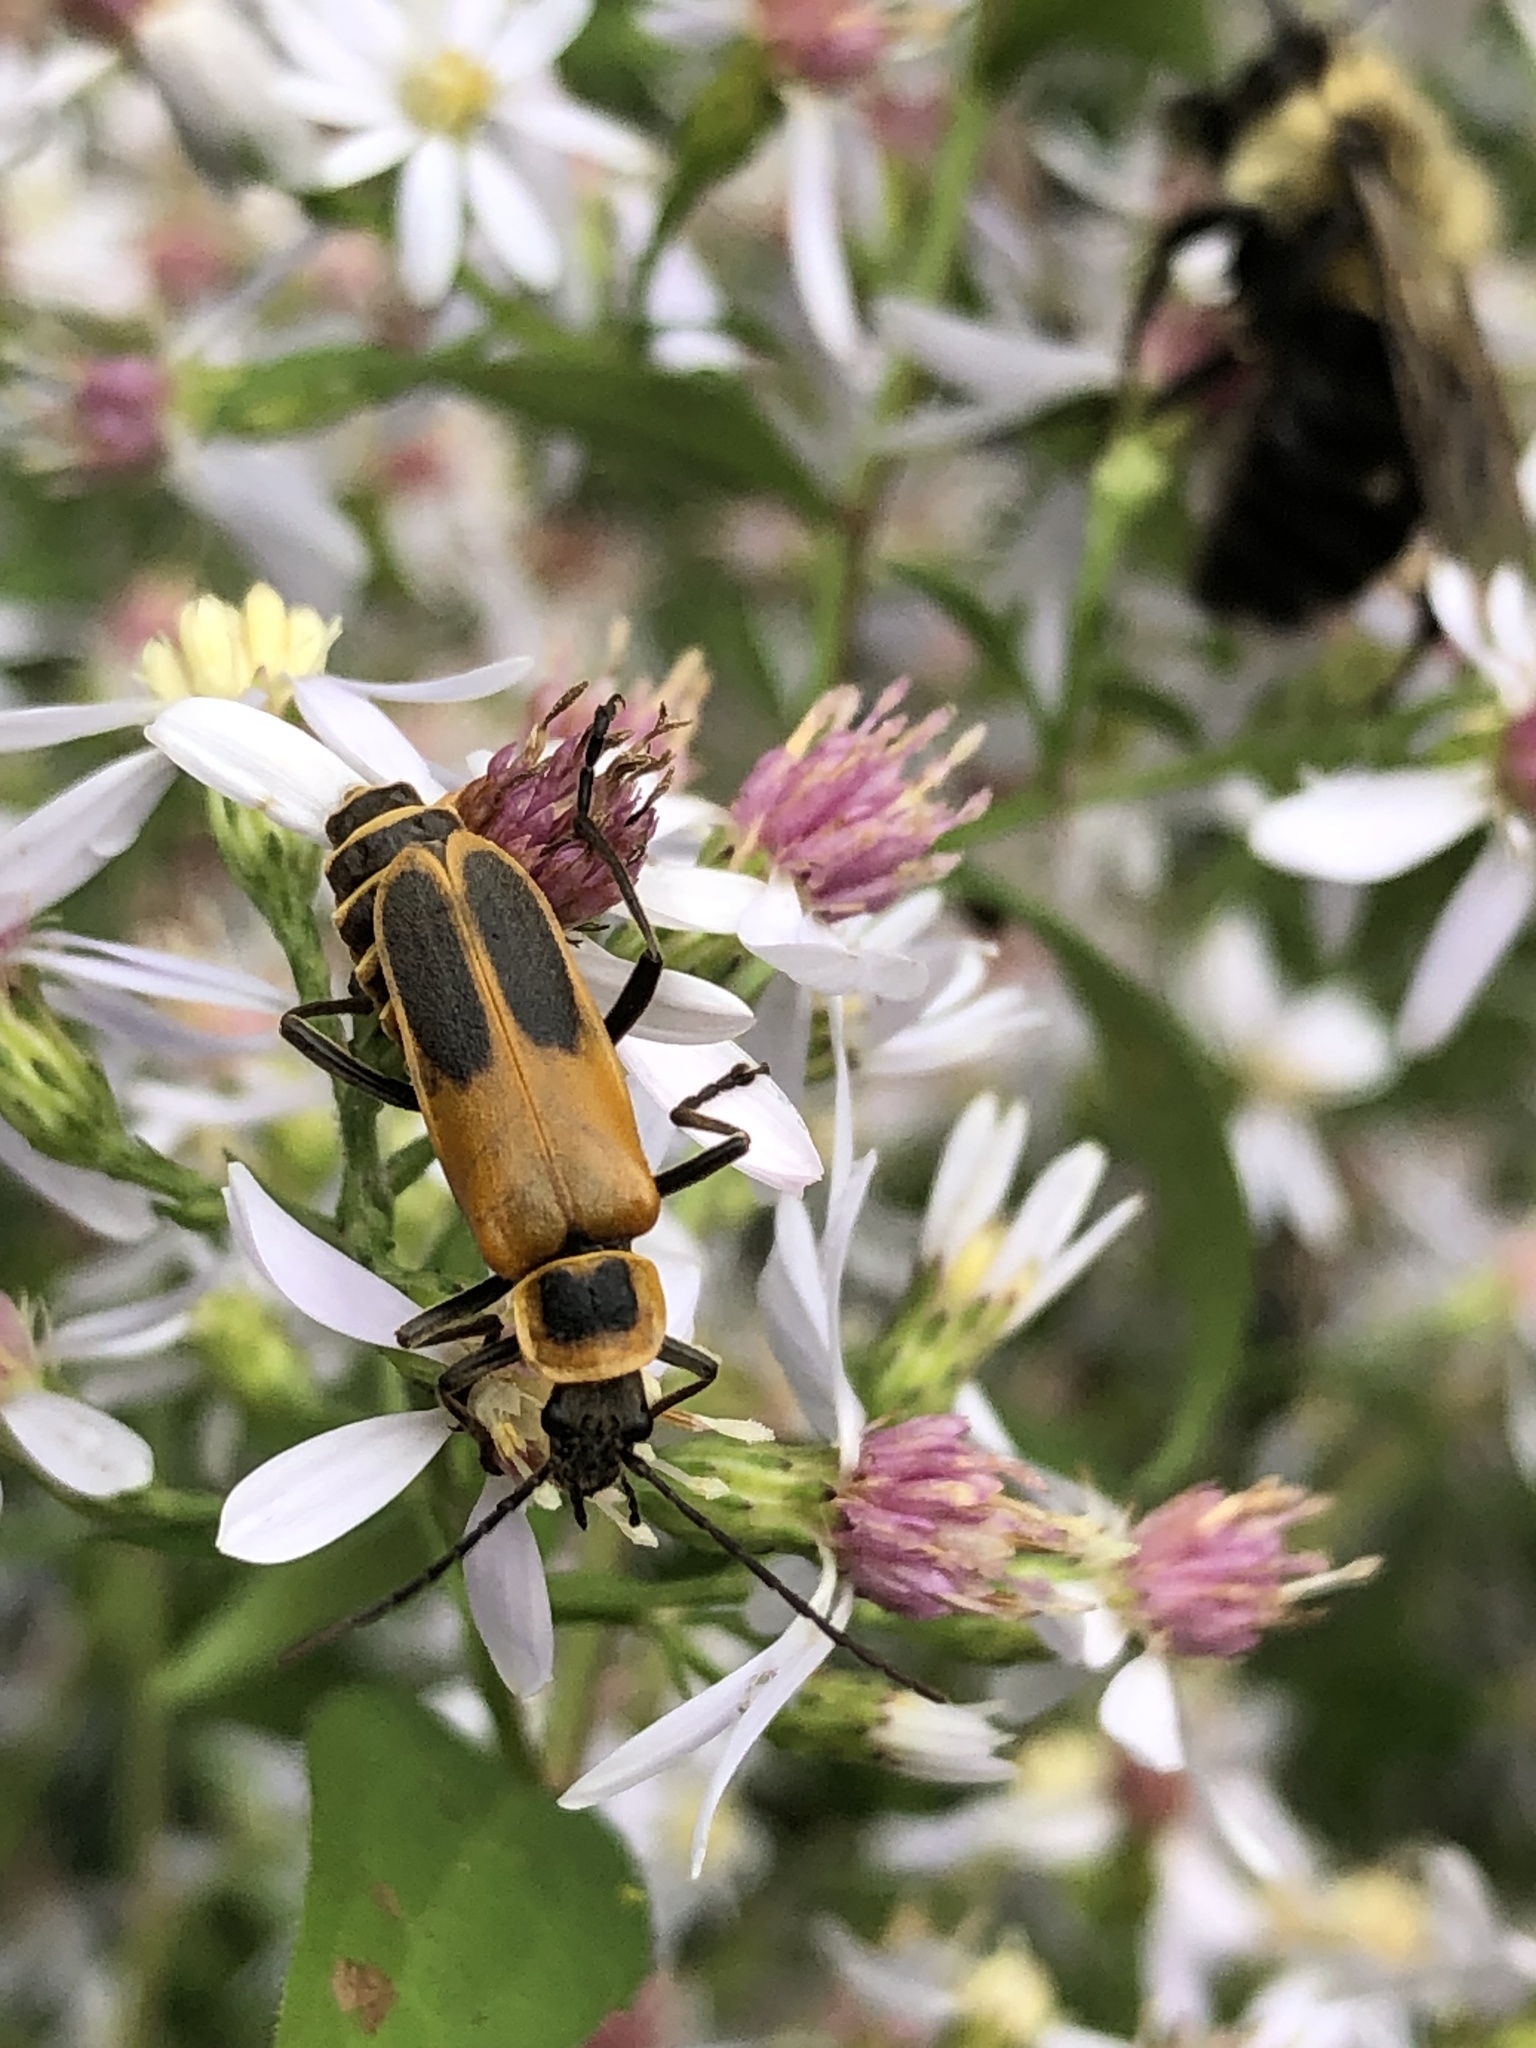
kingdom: Animalia
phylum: Arthropoda
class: Insecta
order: Coleoptera
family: Cantharidae
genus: Chauliognathus
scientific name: Chauliognathus pensylvanicus
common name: Goldenrod soldier beetle
